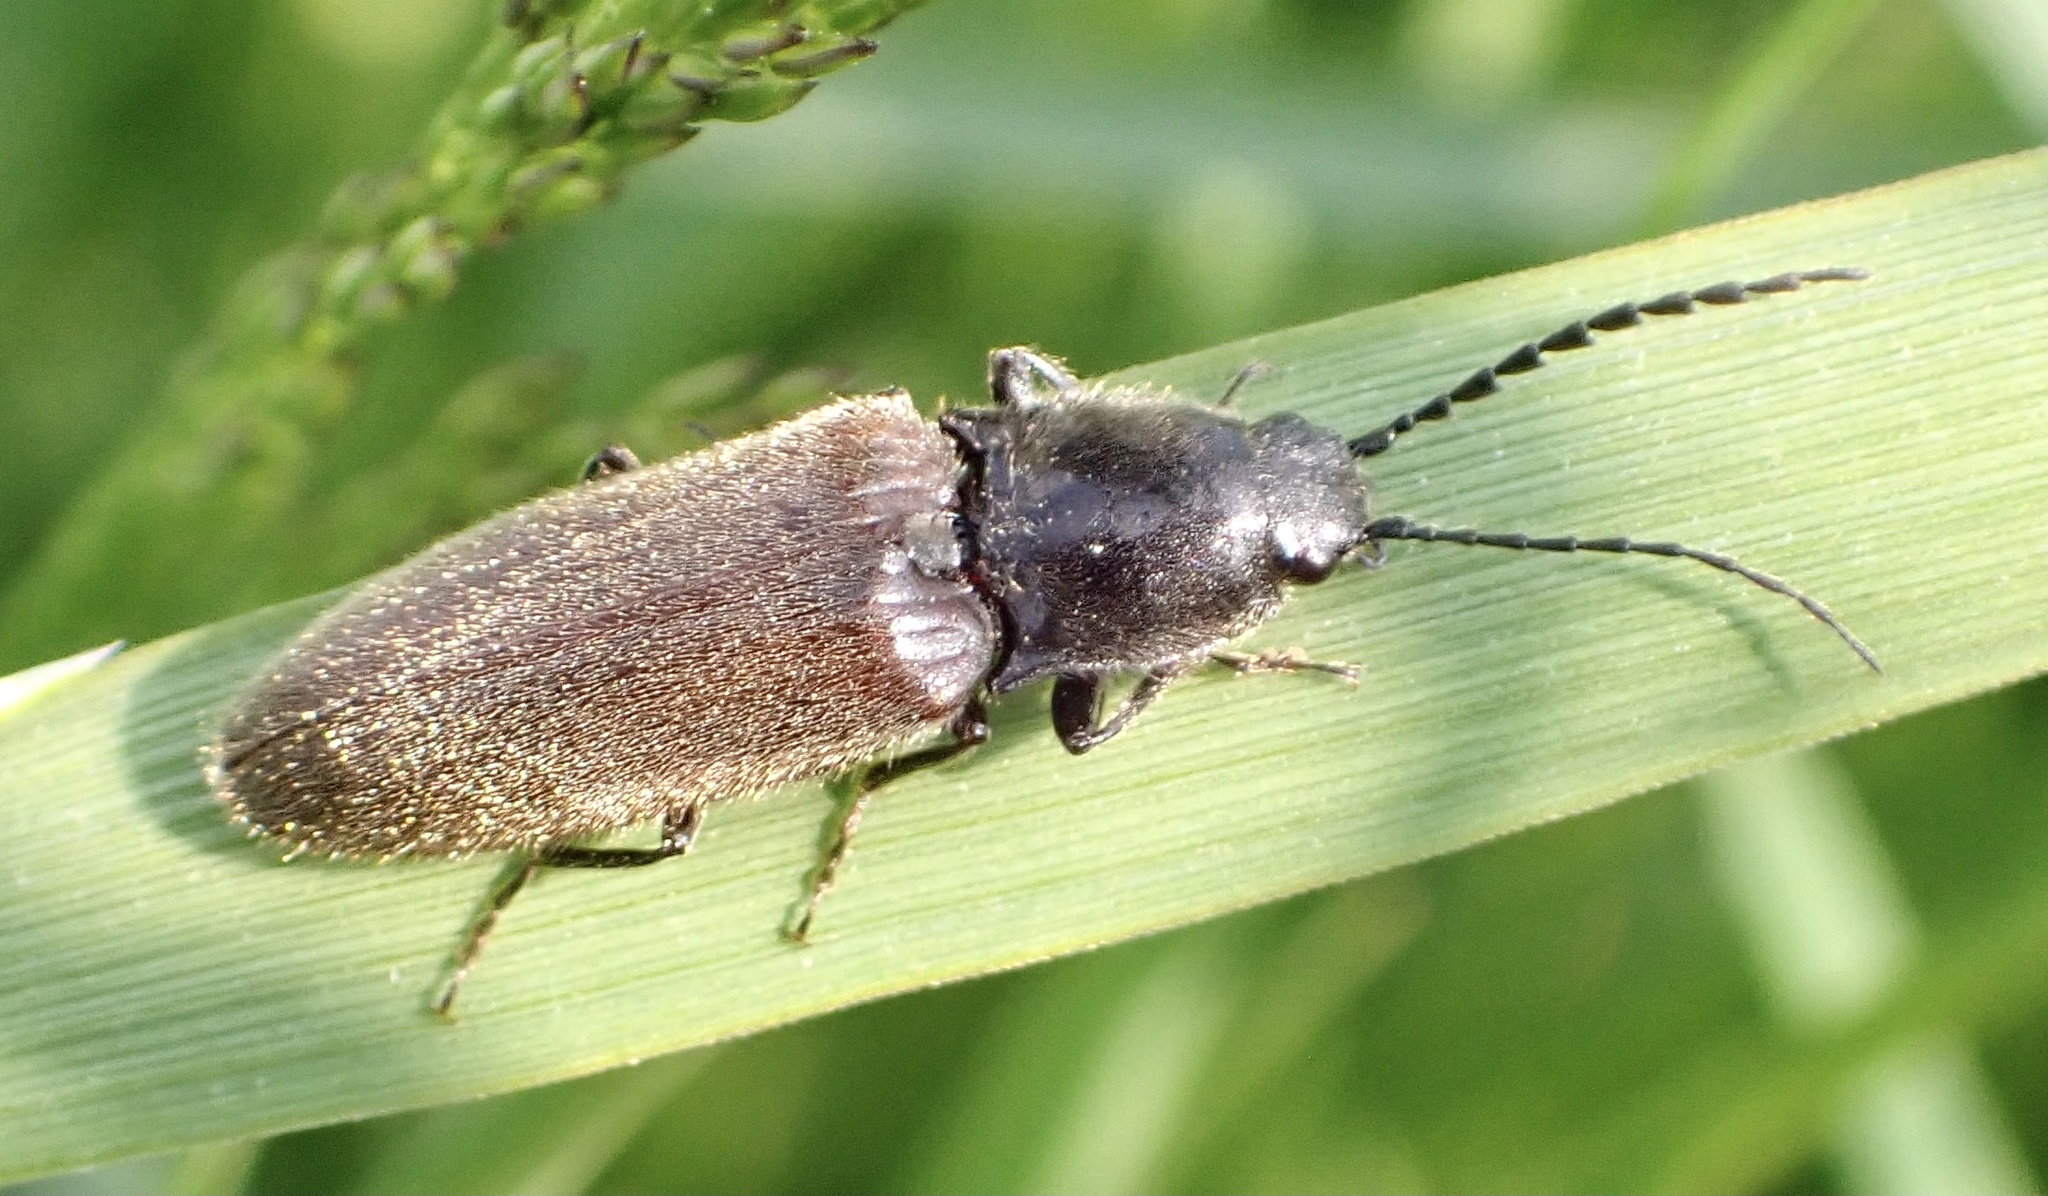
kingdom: Animalia
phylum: Arthropoda
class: Insecta
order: Coleoptera
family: Elateridae
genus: Hemicrepidius
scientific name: Hemicrepidius niger
